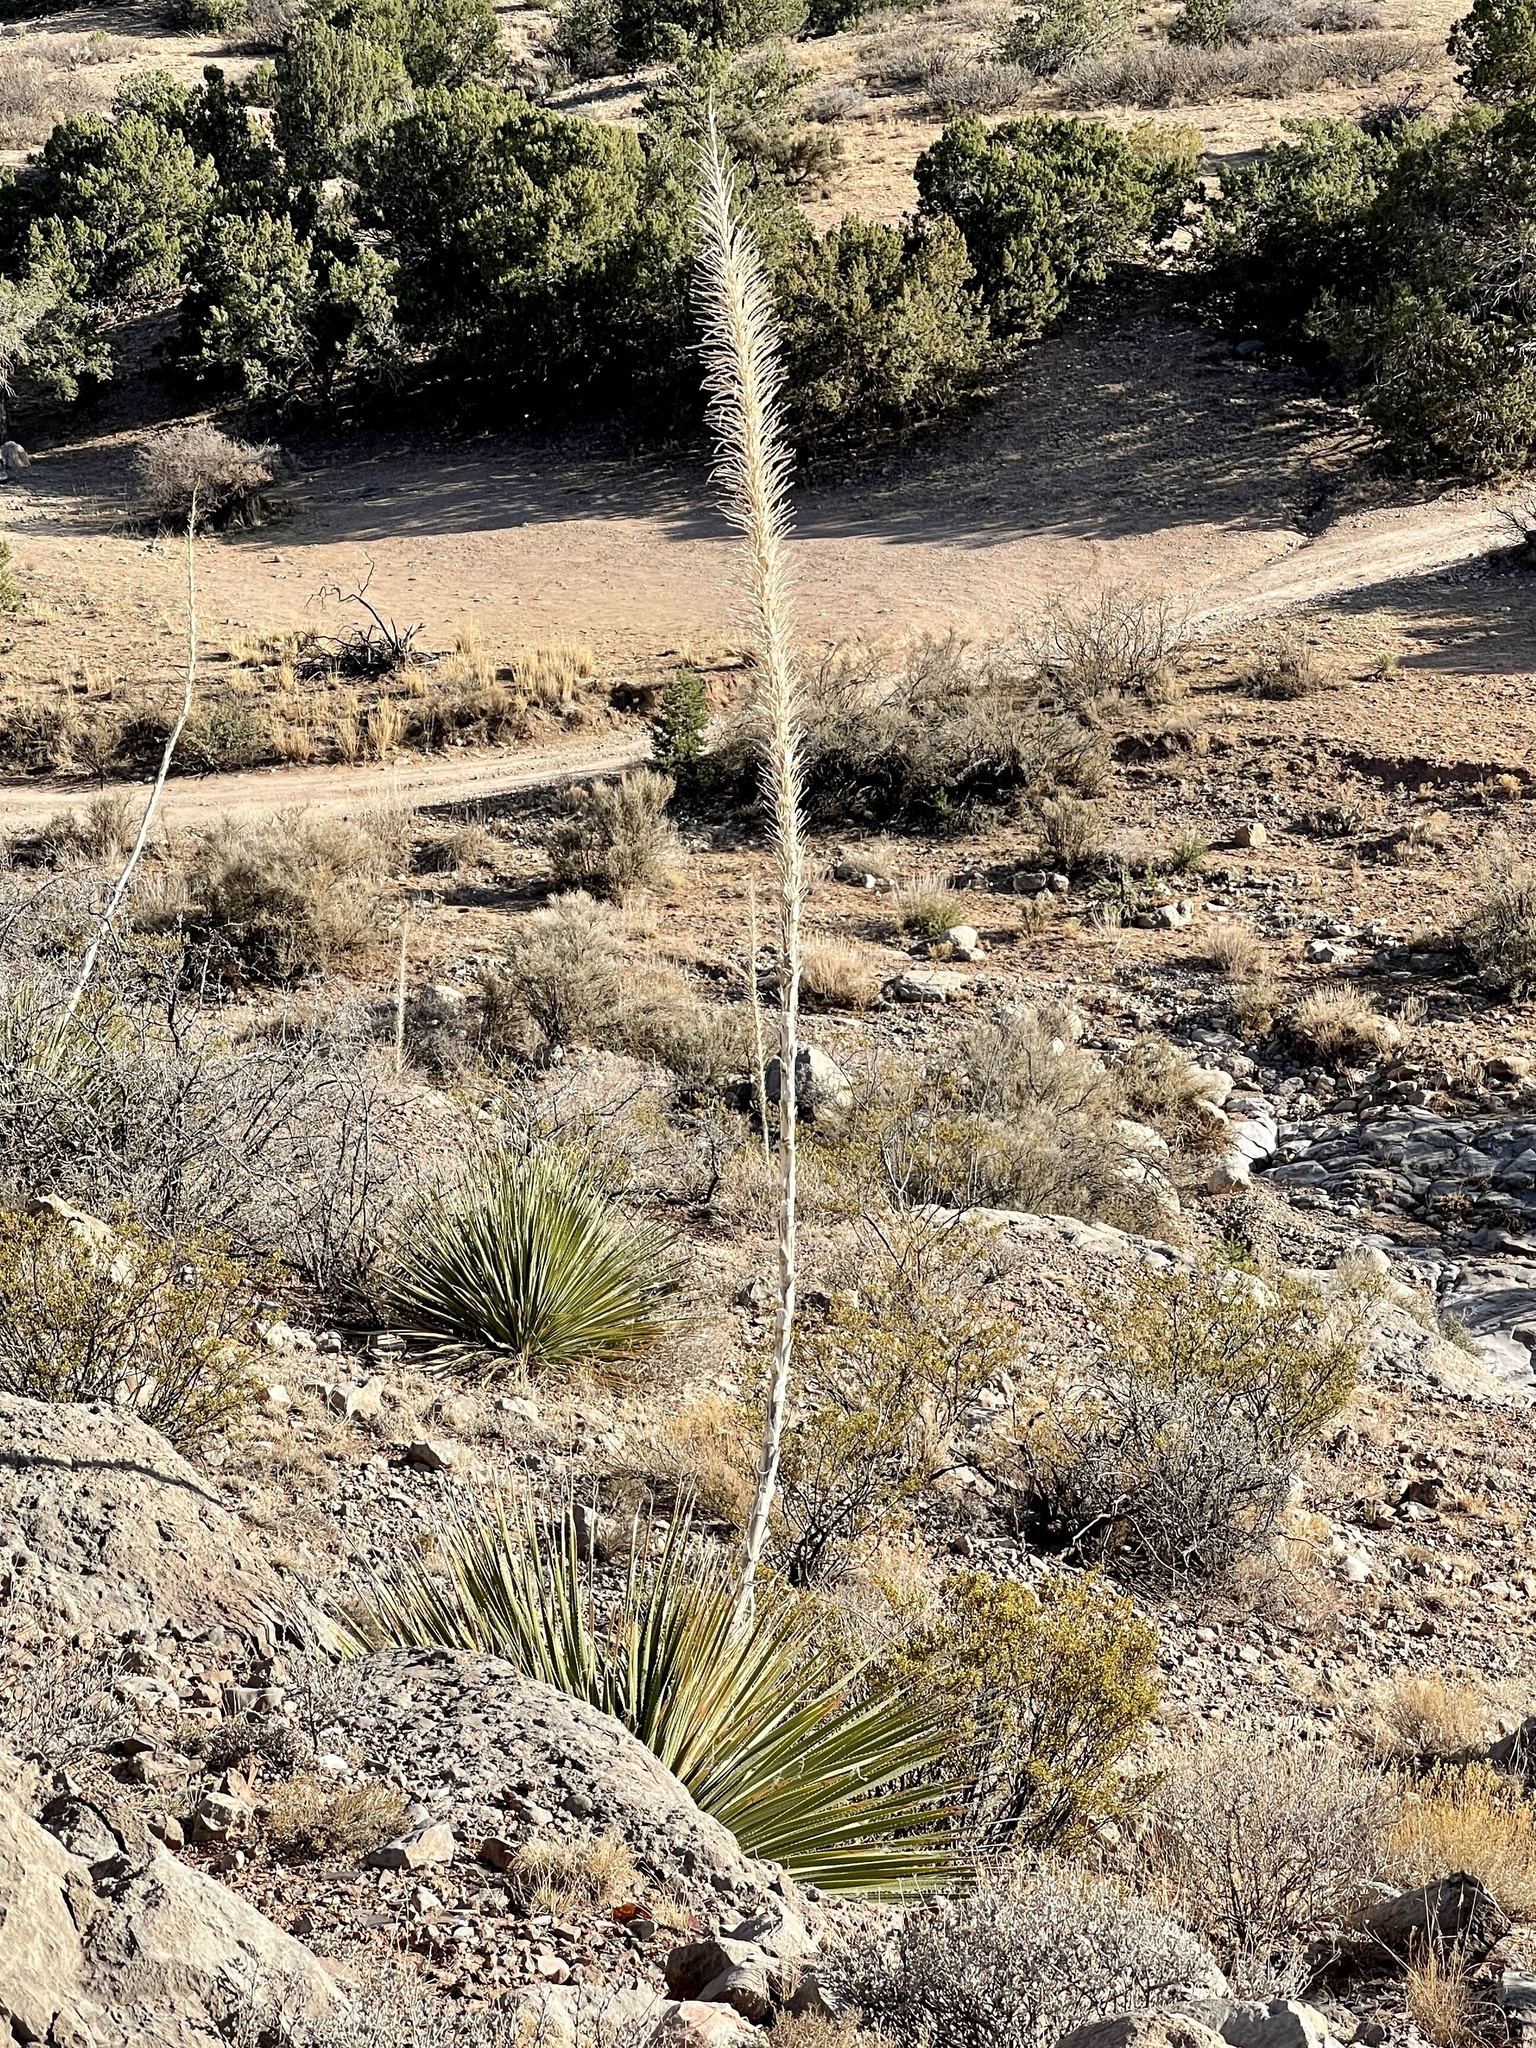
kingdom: Plantae
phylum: Tracheophyta
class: Liliopsida
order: Asparagales
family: Asparagaceae
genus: Dasylirion
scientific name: Dasylirion wheeleri
